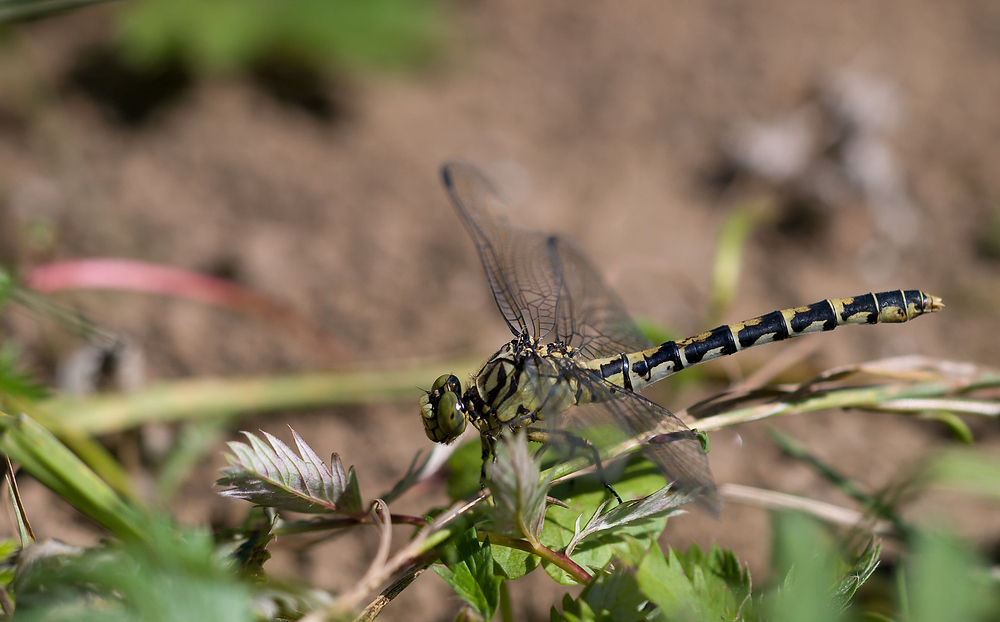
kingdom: Animalia
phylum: Arthropoda
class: Insecta
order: Odonata
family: Gomphidae
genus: Onychogomphus
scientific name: Onychogomphus forcipatus
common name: Small pincertail
